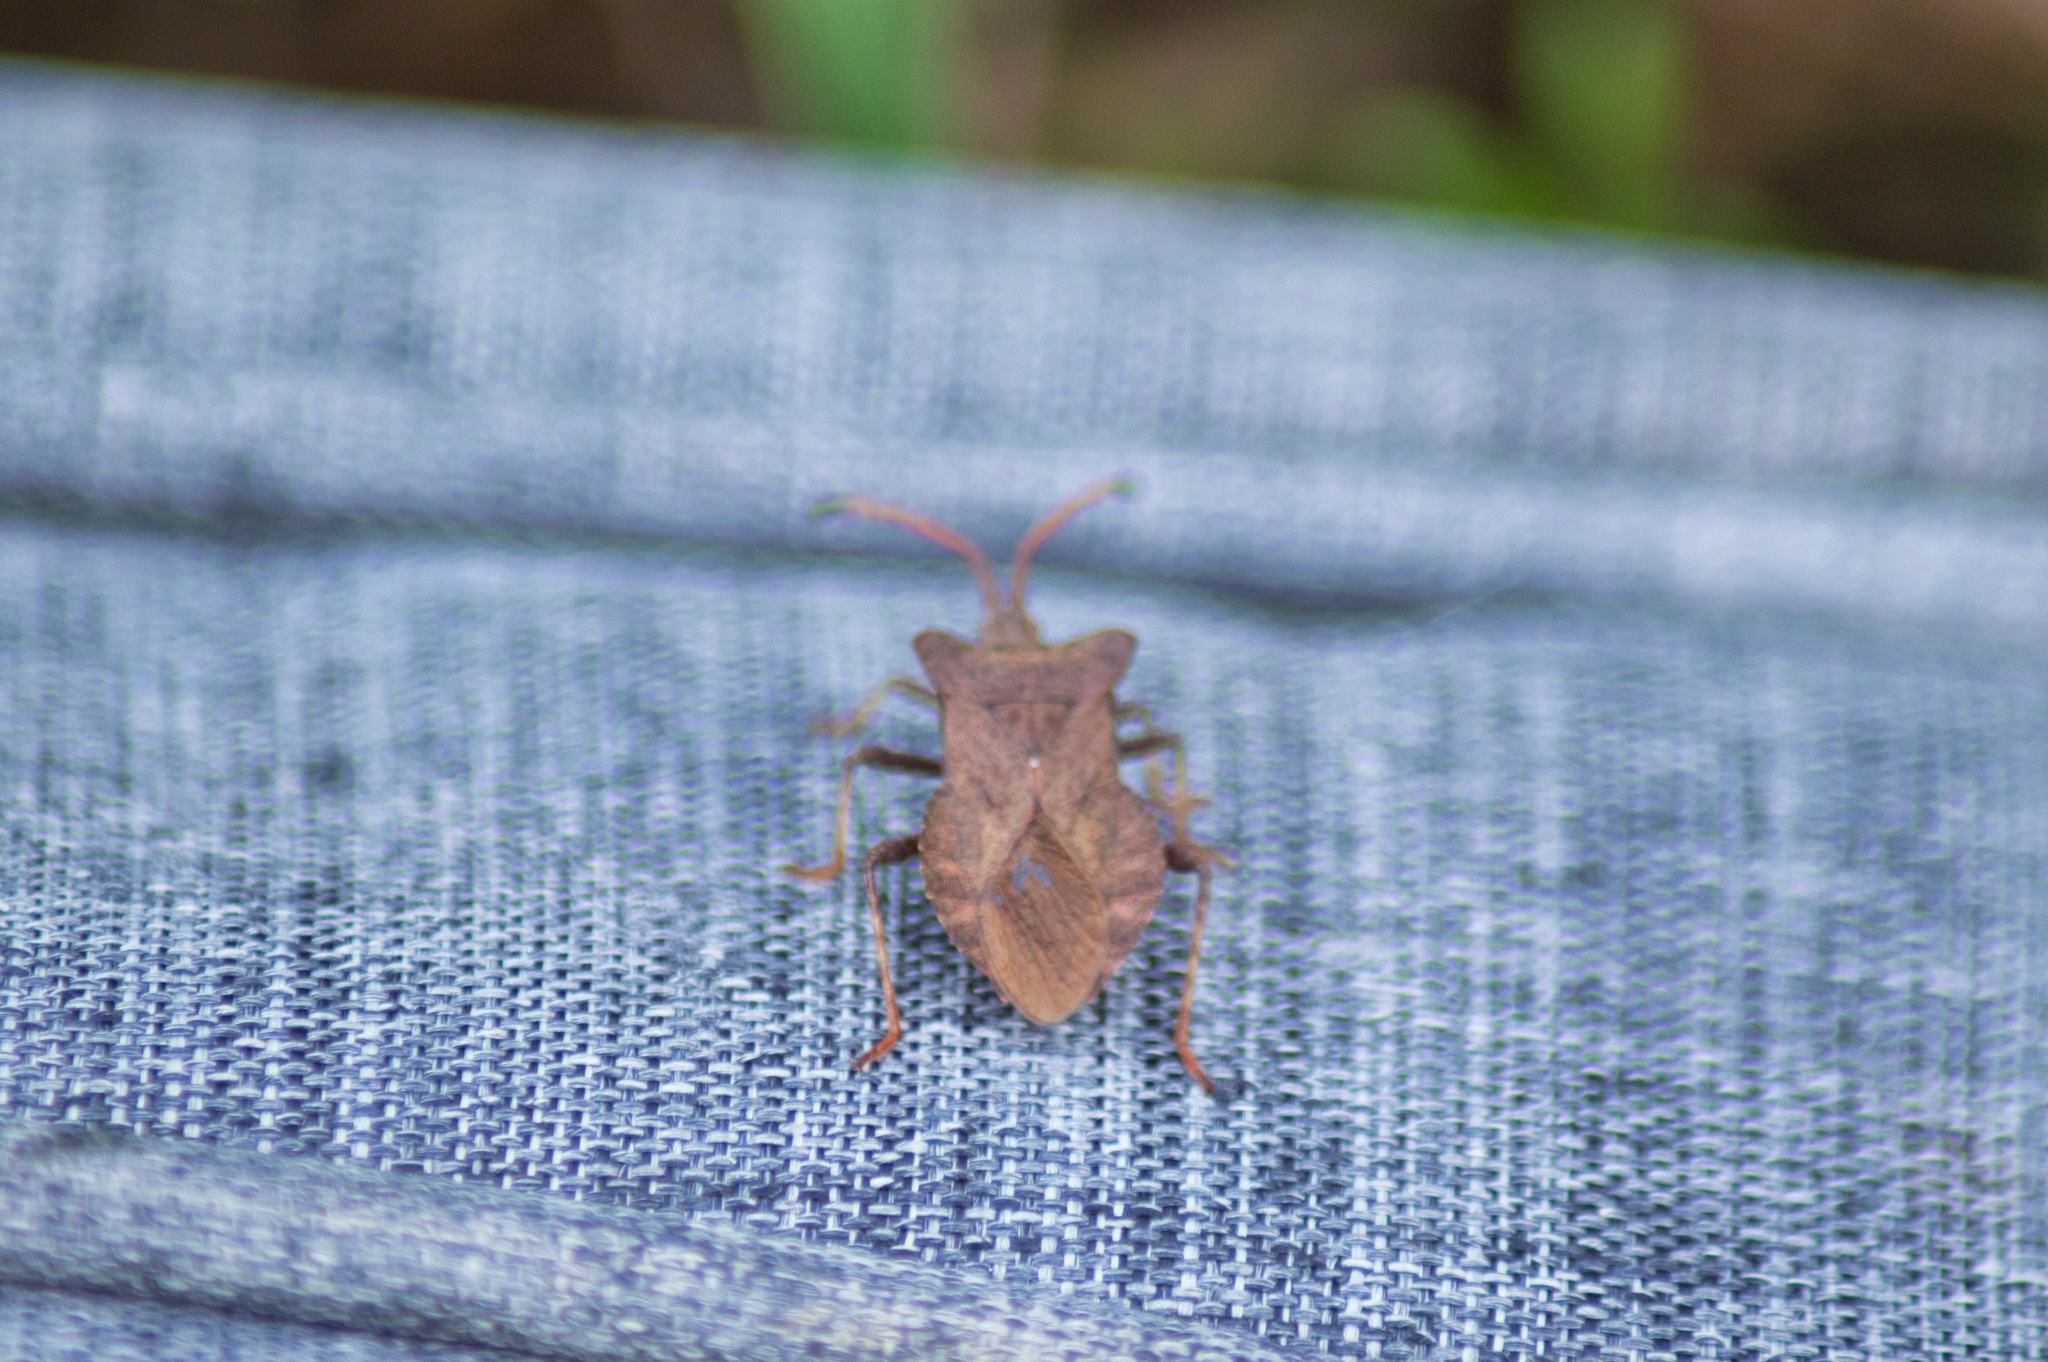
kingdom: Animalia
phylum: Arthropoda
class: Insecta
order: Hemiptera
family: Coreidae
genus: Coreus
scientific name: Coreus marginatus
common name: Dock bug
